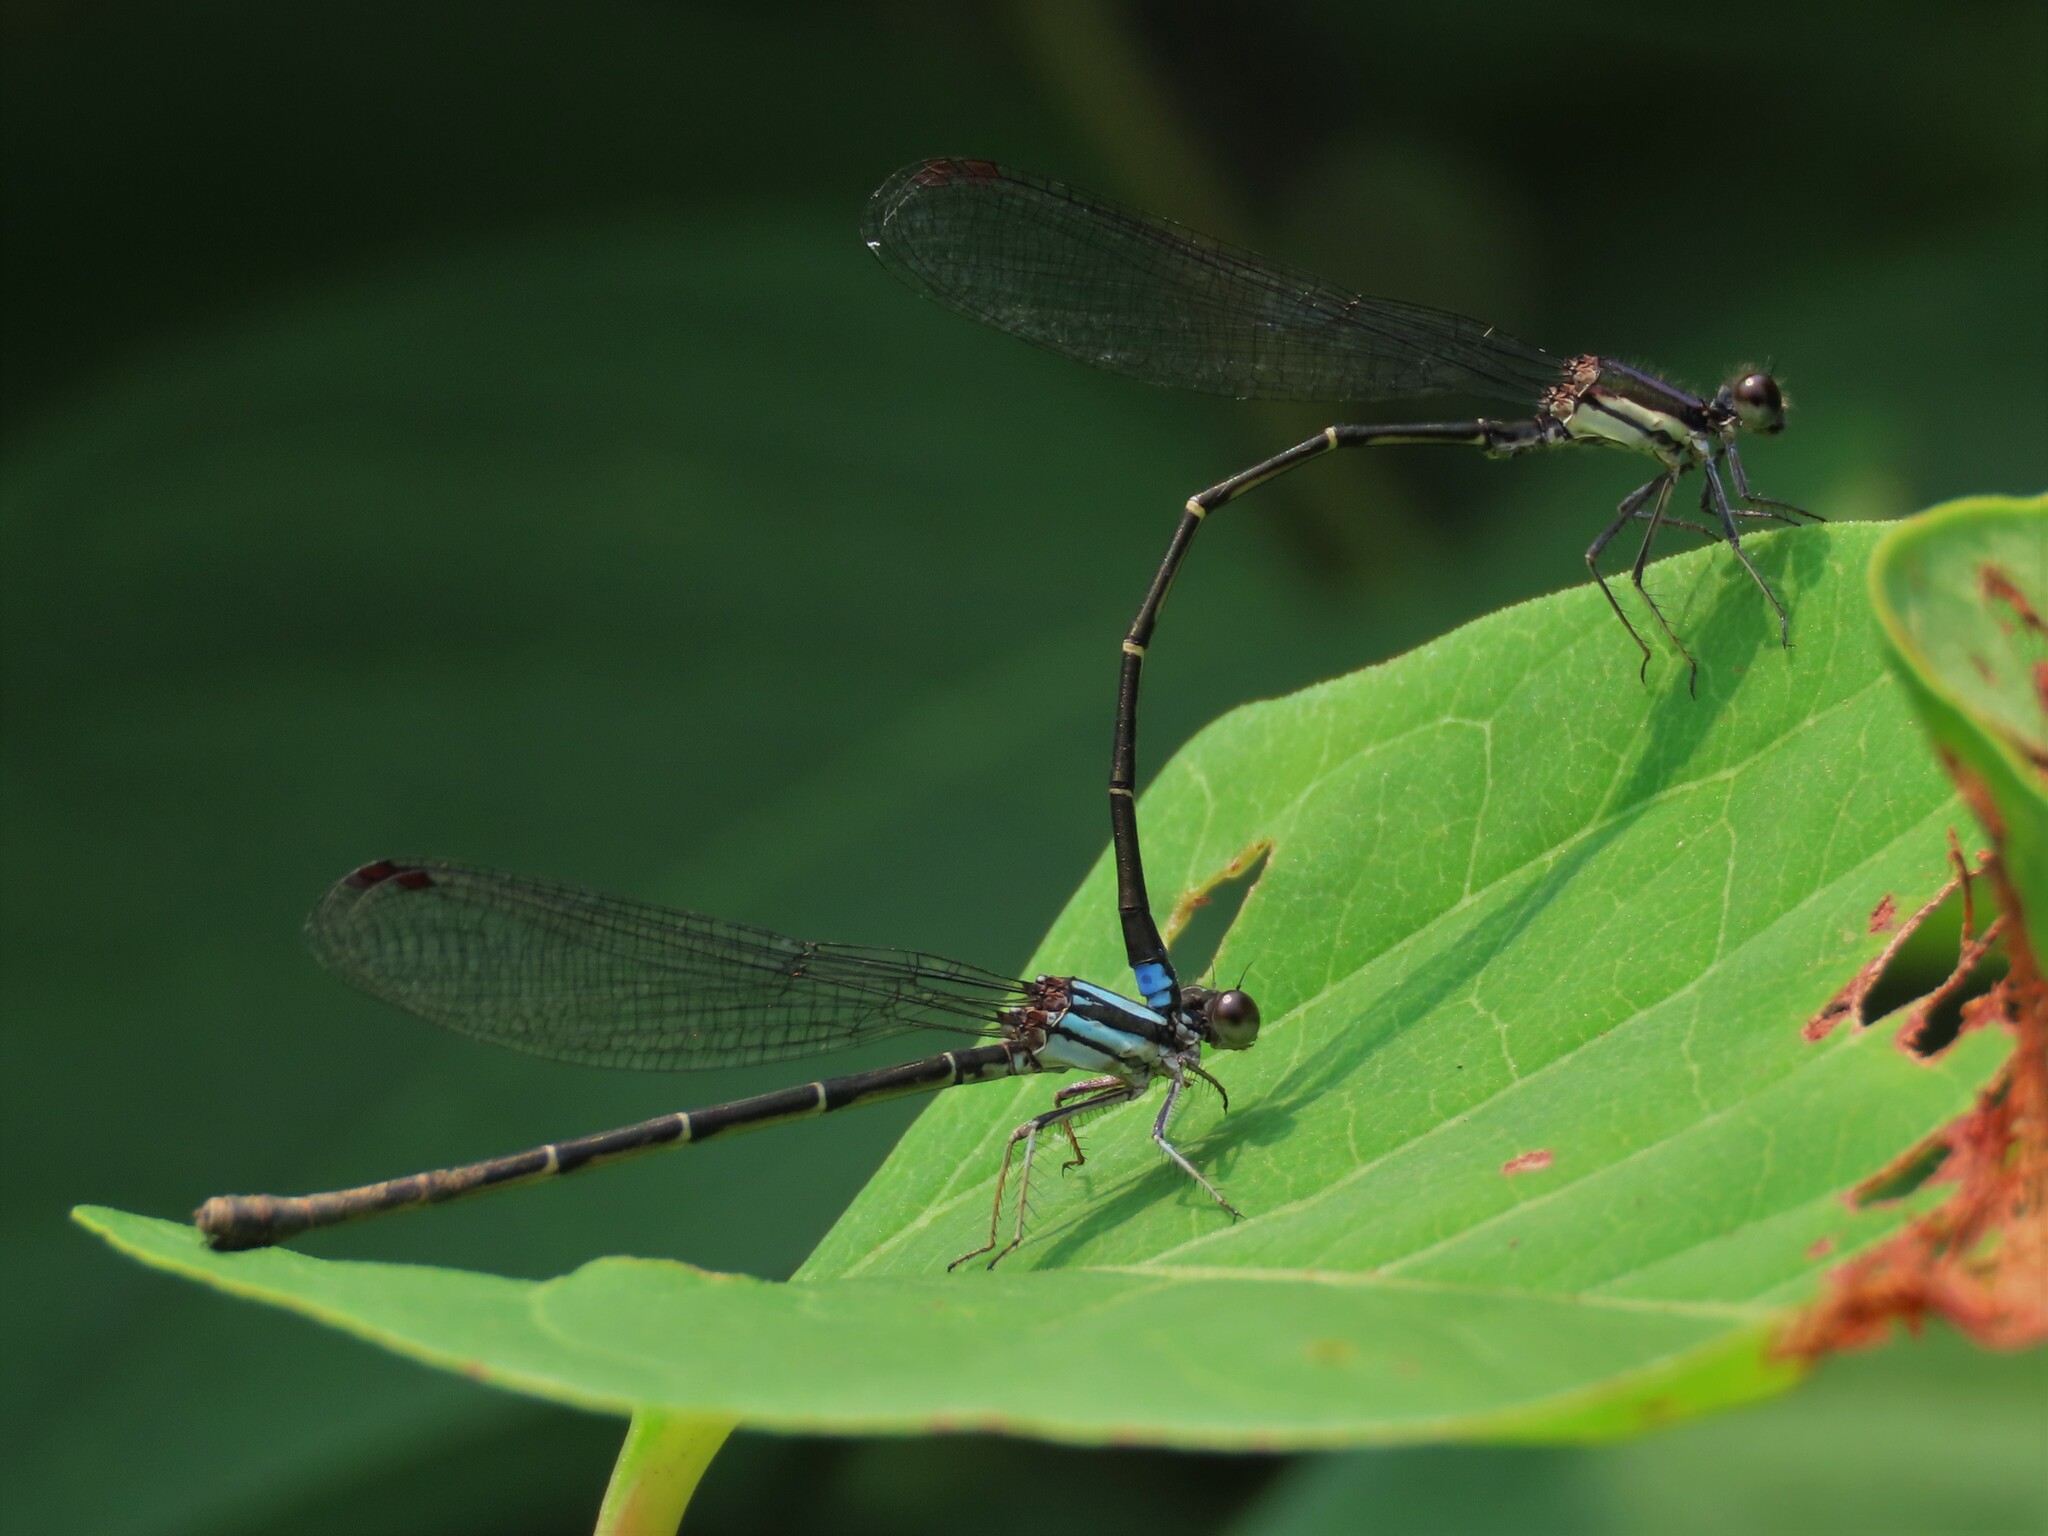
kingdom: Animalia
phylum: Arthropoda
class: Insecta
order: Odonata
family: Coenagrionidae
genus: Argia
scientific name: Argia tibialis
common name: Blue-tipped dancer
